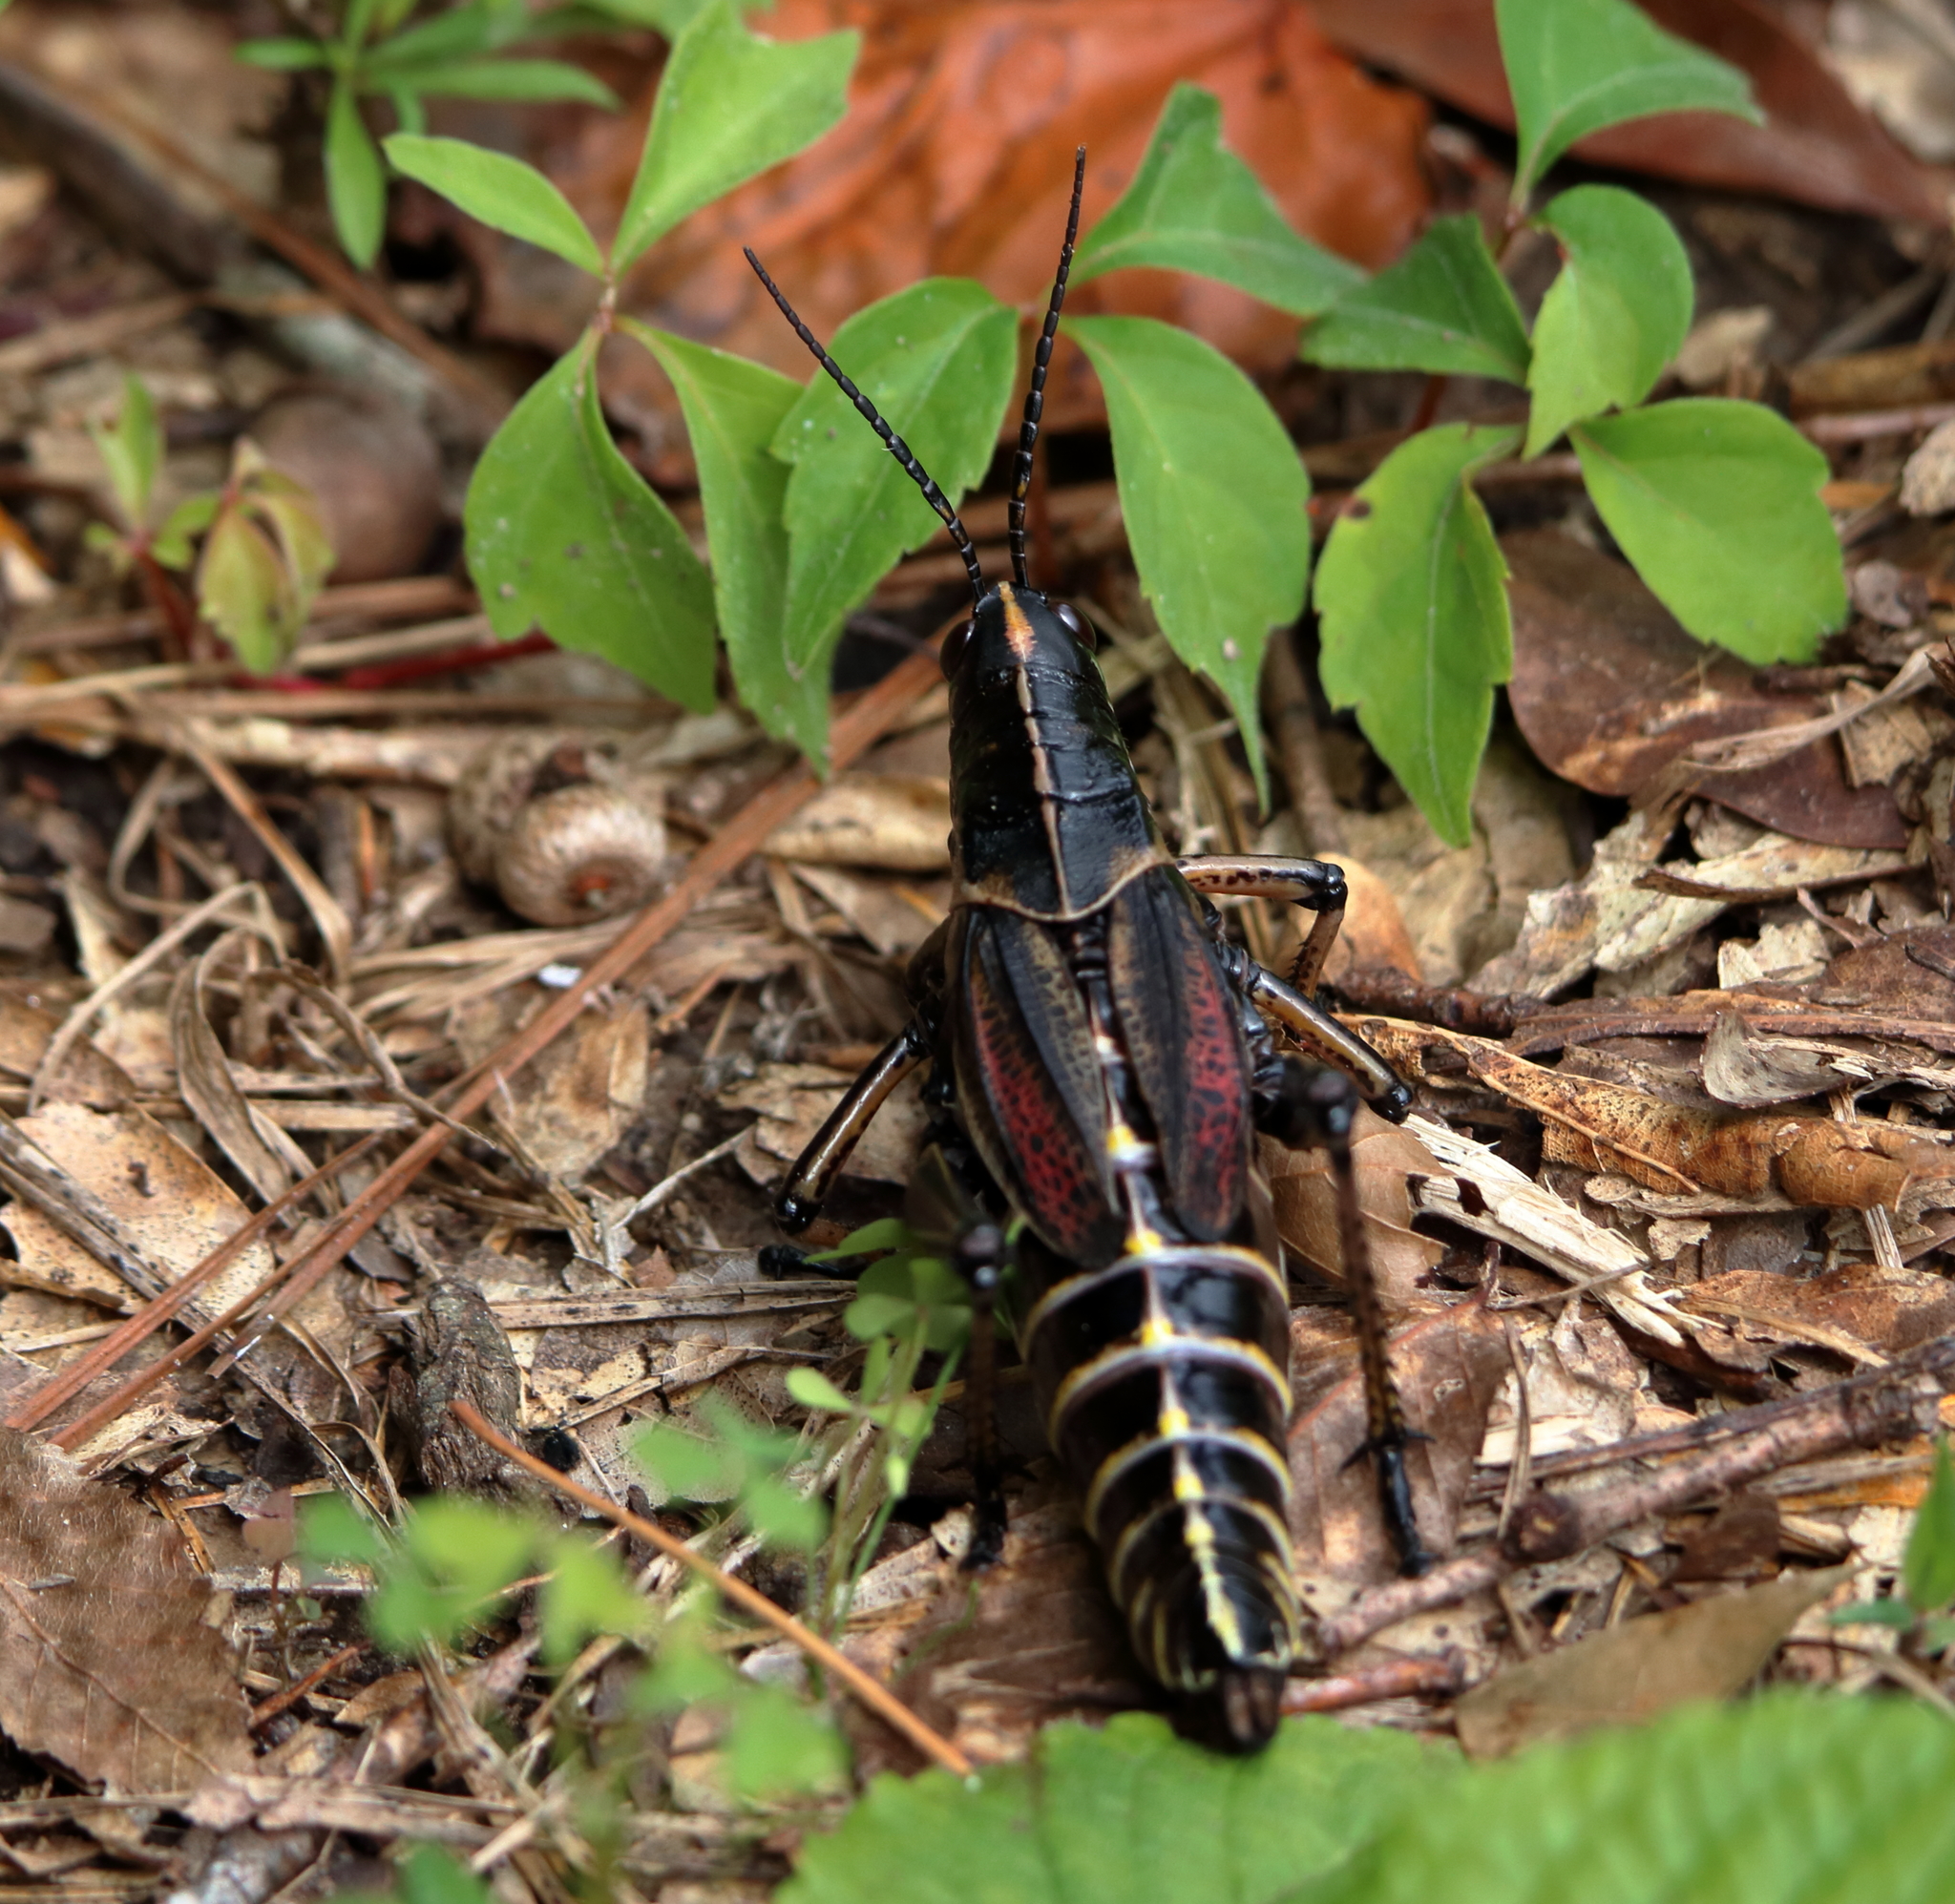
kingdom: Animalia
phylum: Arthropoda
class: Insecta
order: Orthoptera
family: Romaleidae
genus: Romalea
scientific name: Romalea microptera
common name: Eastern lubber grasshopper
